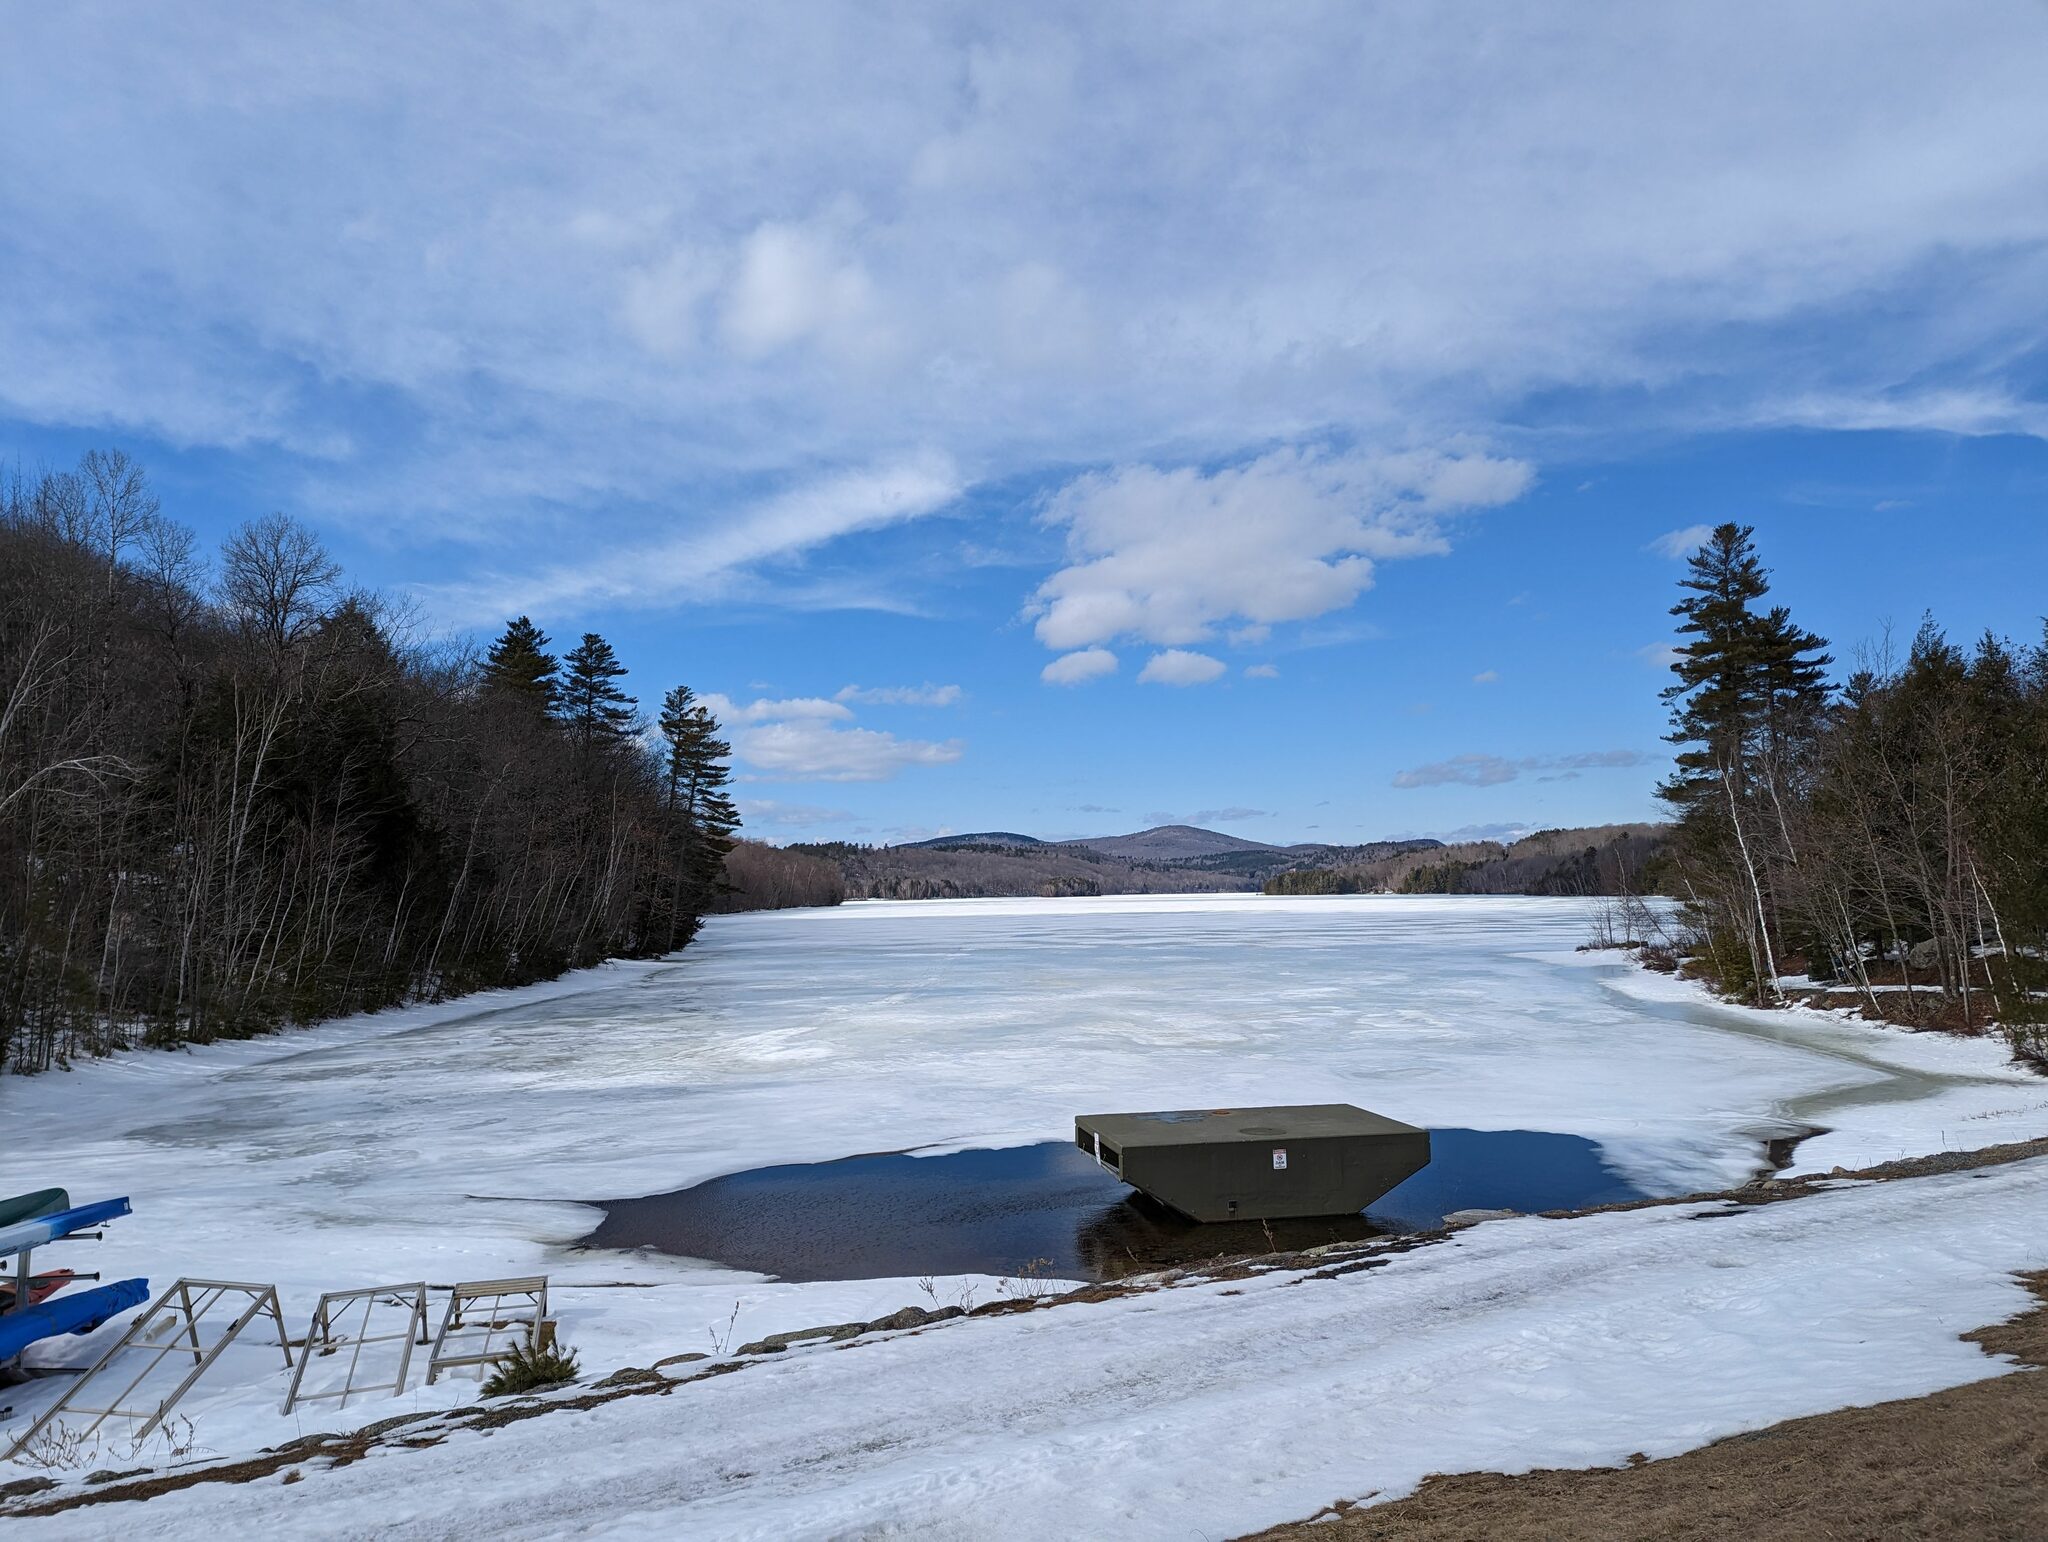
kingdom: Plantae
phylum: Tracheophyta
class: Pinopsida
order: Pinales
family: Pinaceae
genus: Pinus
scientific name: Pinus strobus
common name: Weymouth pine
